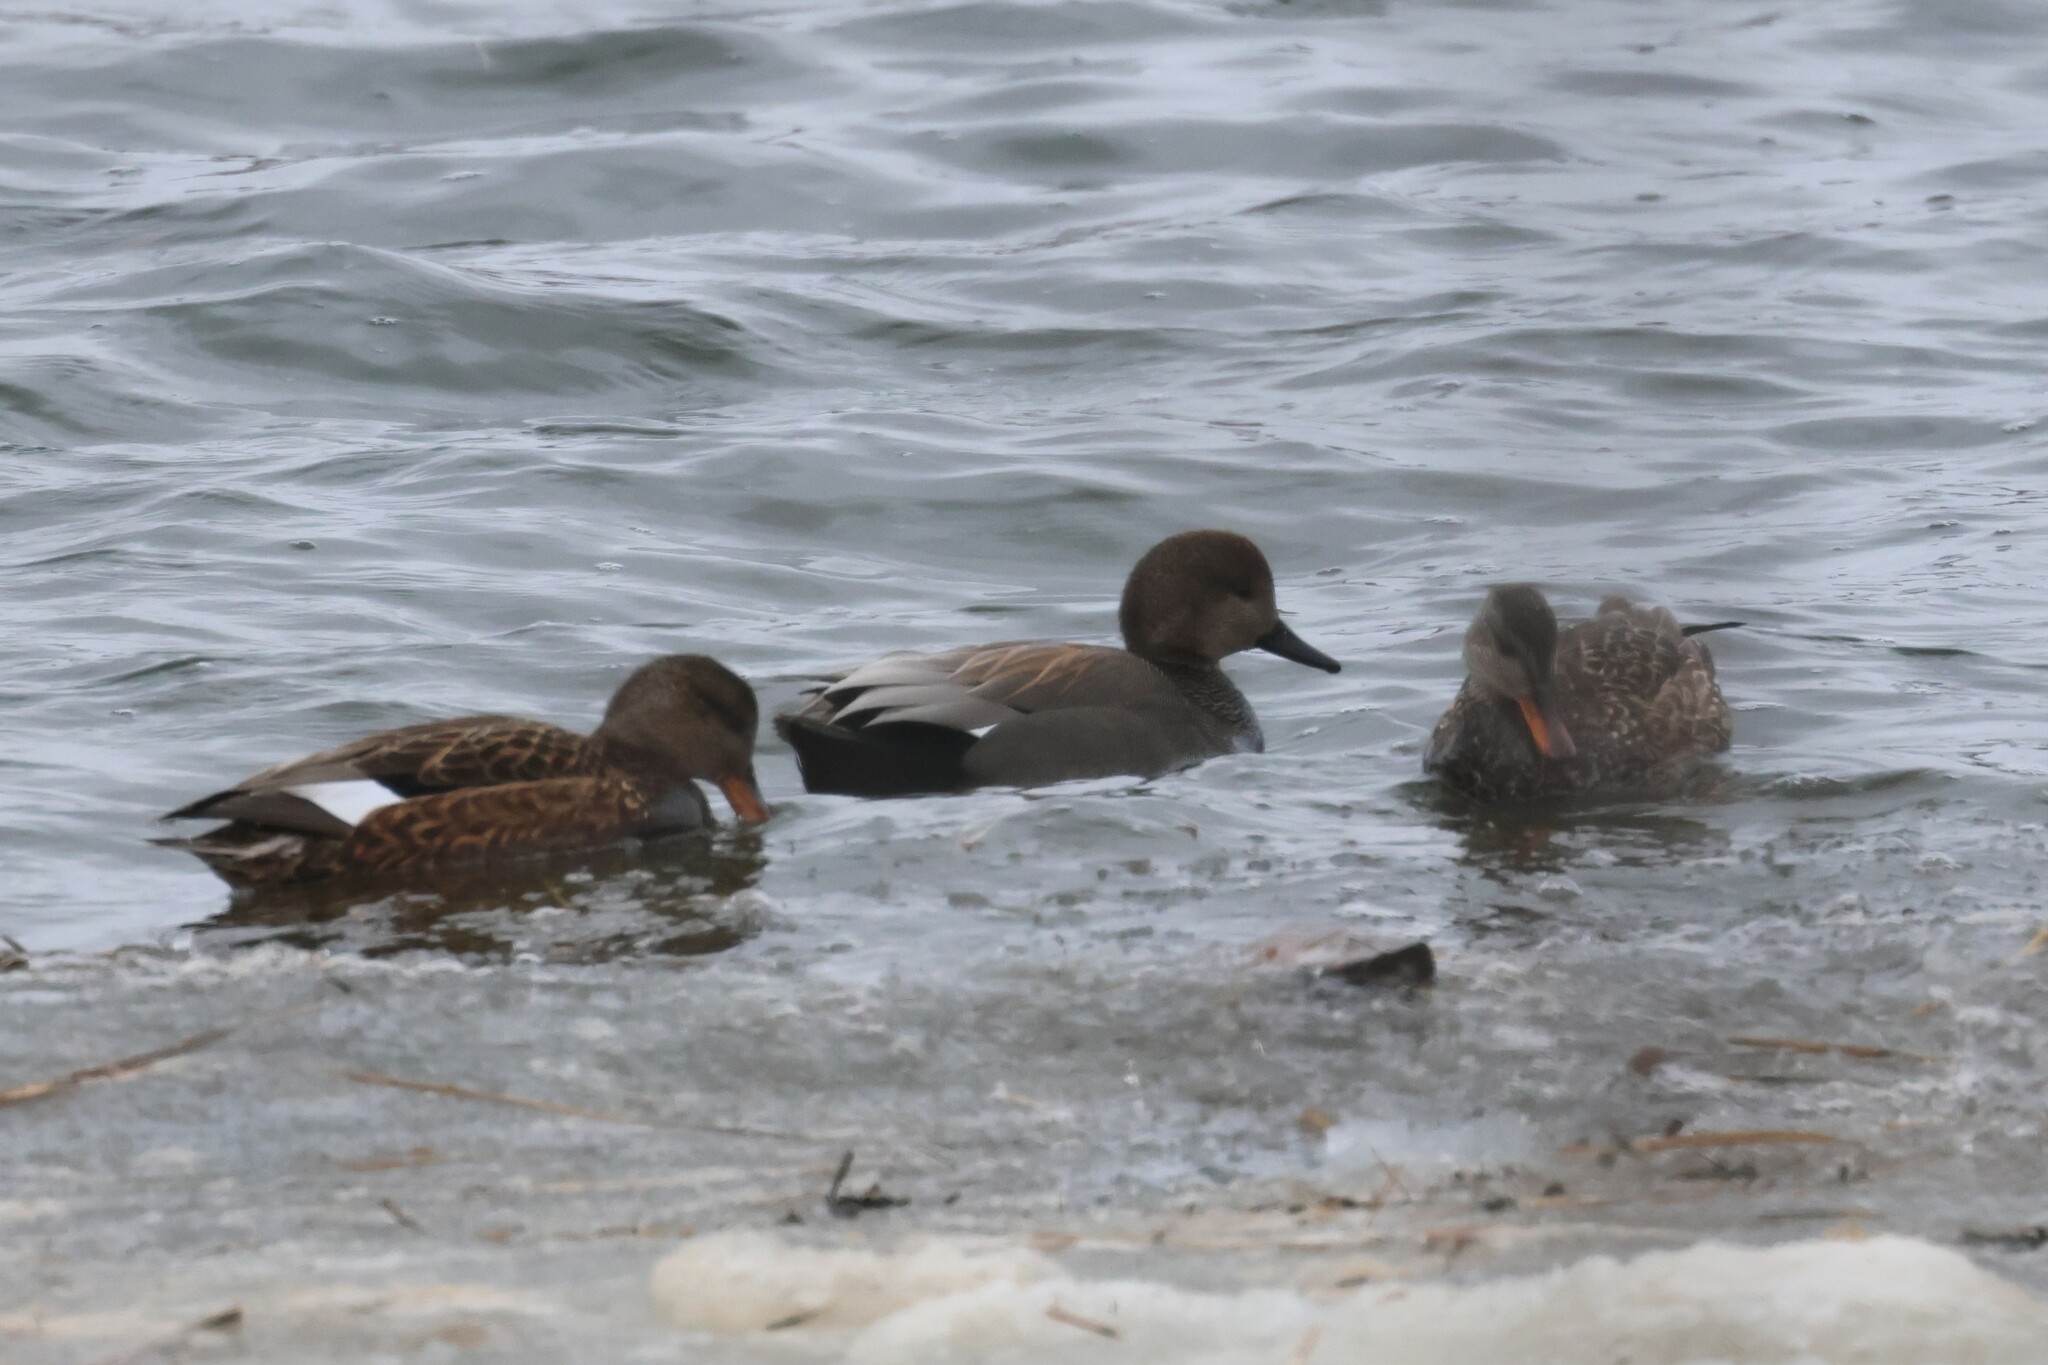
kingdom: Animalia
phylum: Chordata
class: Aves
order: Anseriformes
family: Anatidae
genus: Mareca
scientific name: Mareca strepera
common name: Gadwall
